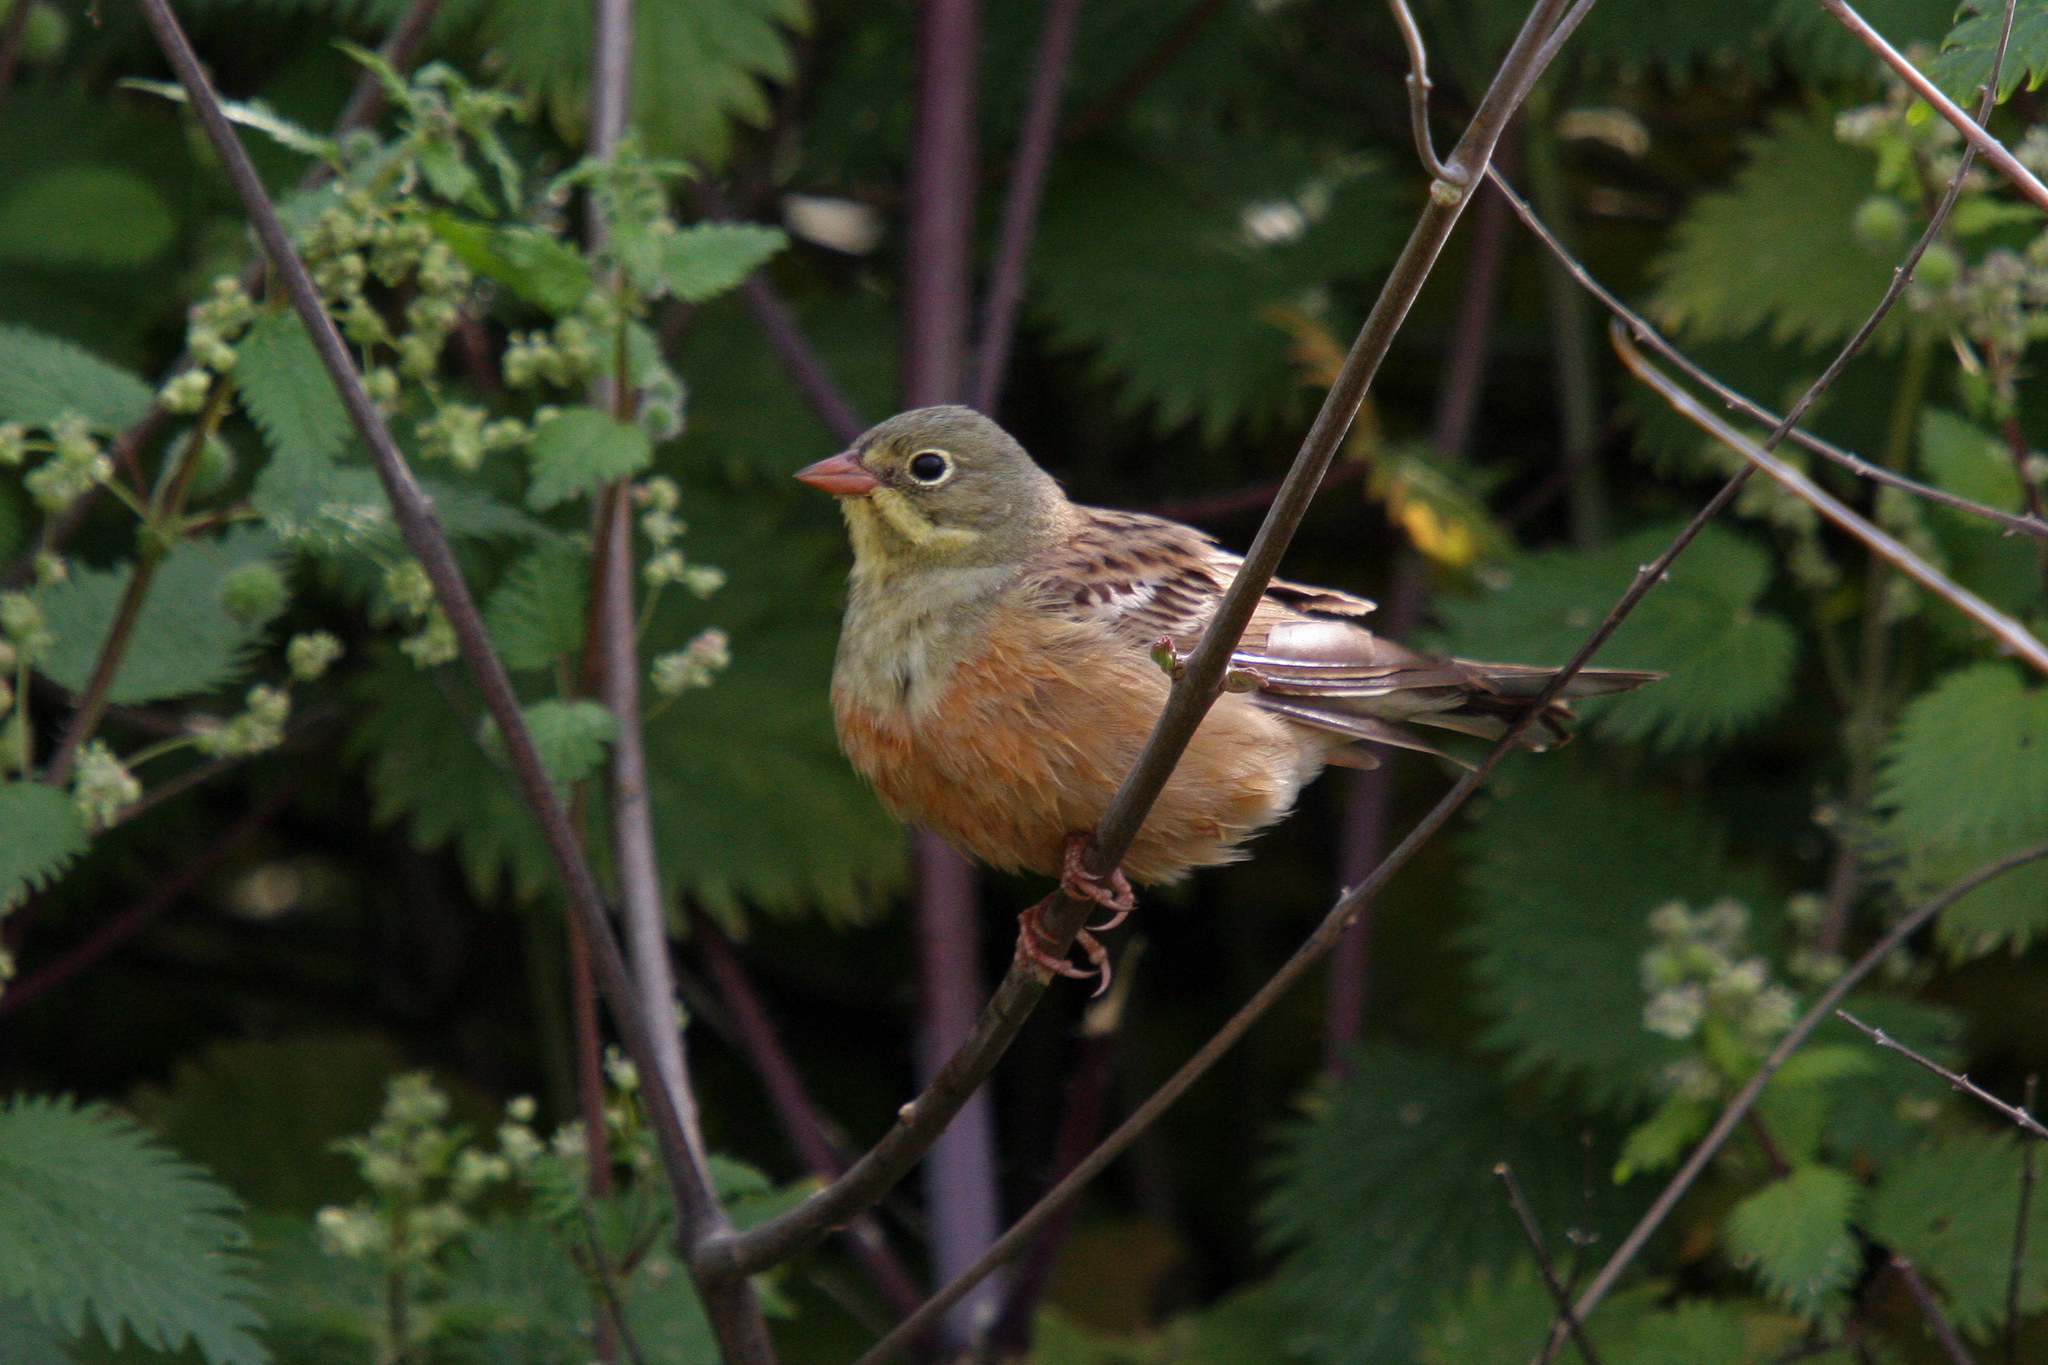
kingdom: Animalia
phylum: Chordata
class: Aves
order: Passeriformes
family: Emberizidae
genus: Emberiza
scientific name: Emberiza hortulana
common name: Ortolan bunting
